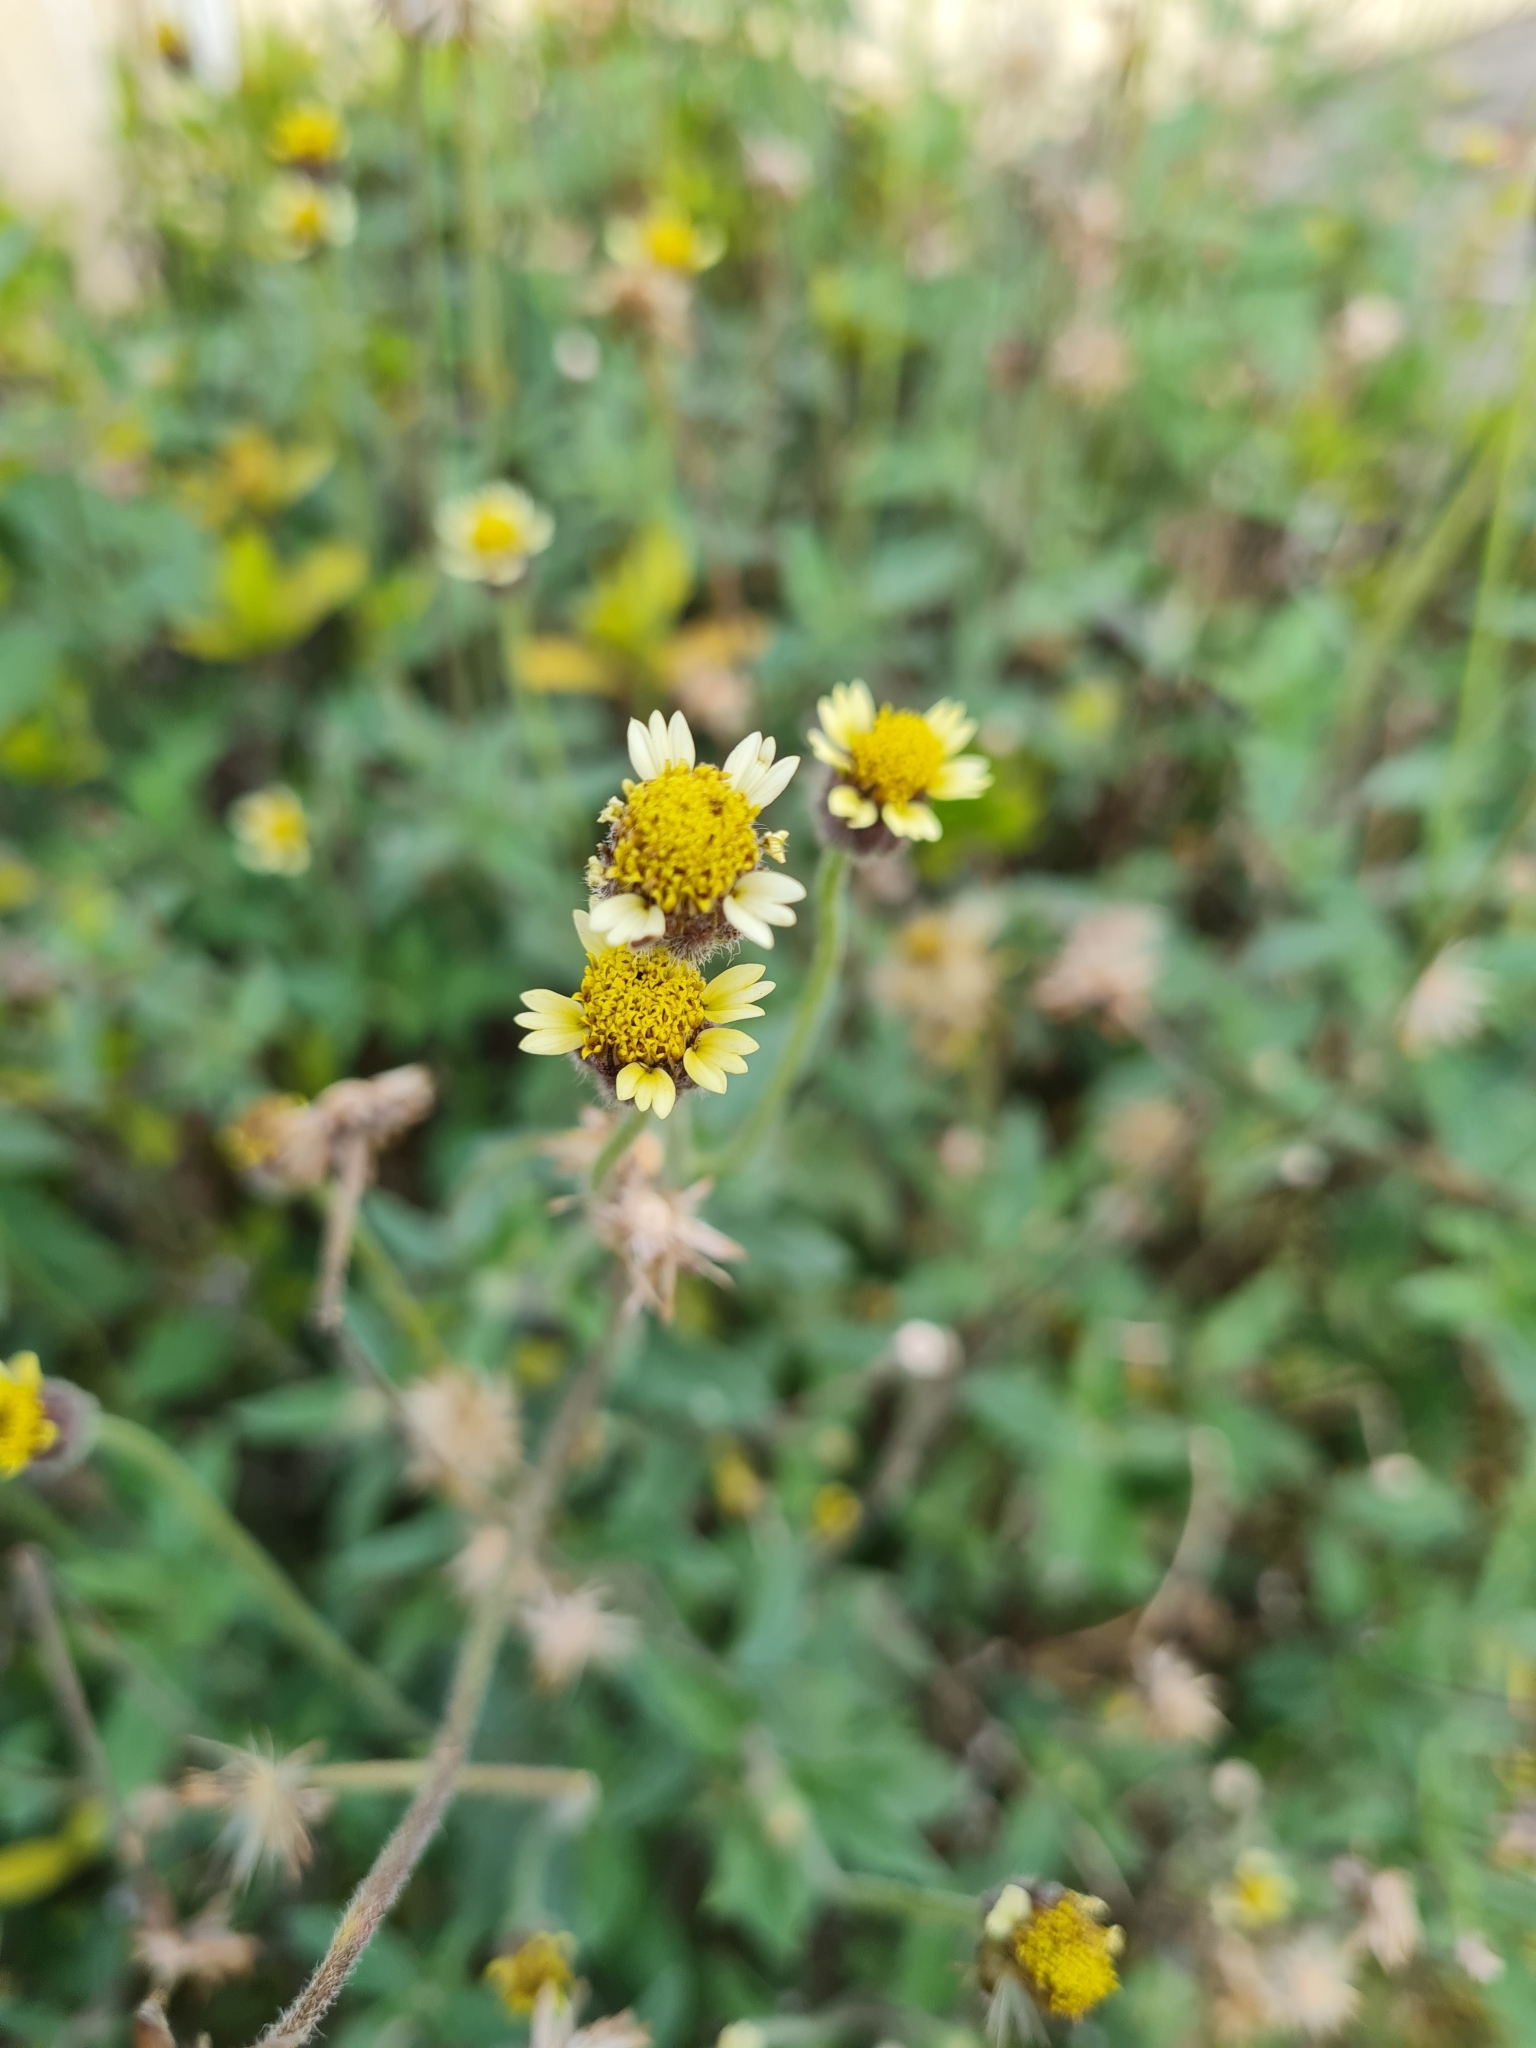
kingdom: Plantae
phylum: Tracheophyta
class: Magnoliopsida
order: Asterales
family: Asteraceae
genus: Tridax
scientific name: Tridax procumbens
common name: Coatbuttons
